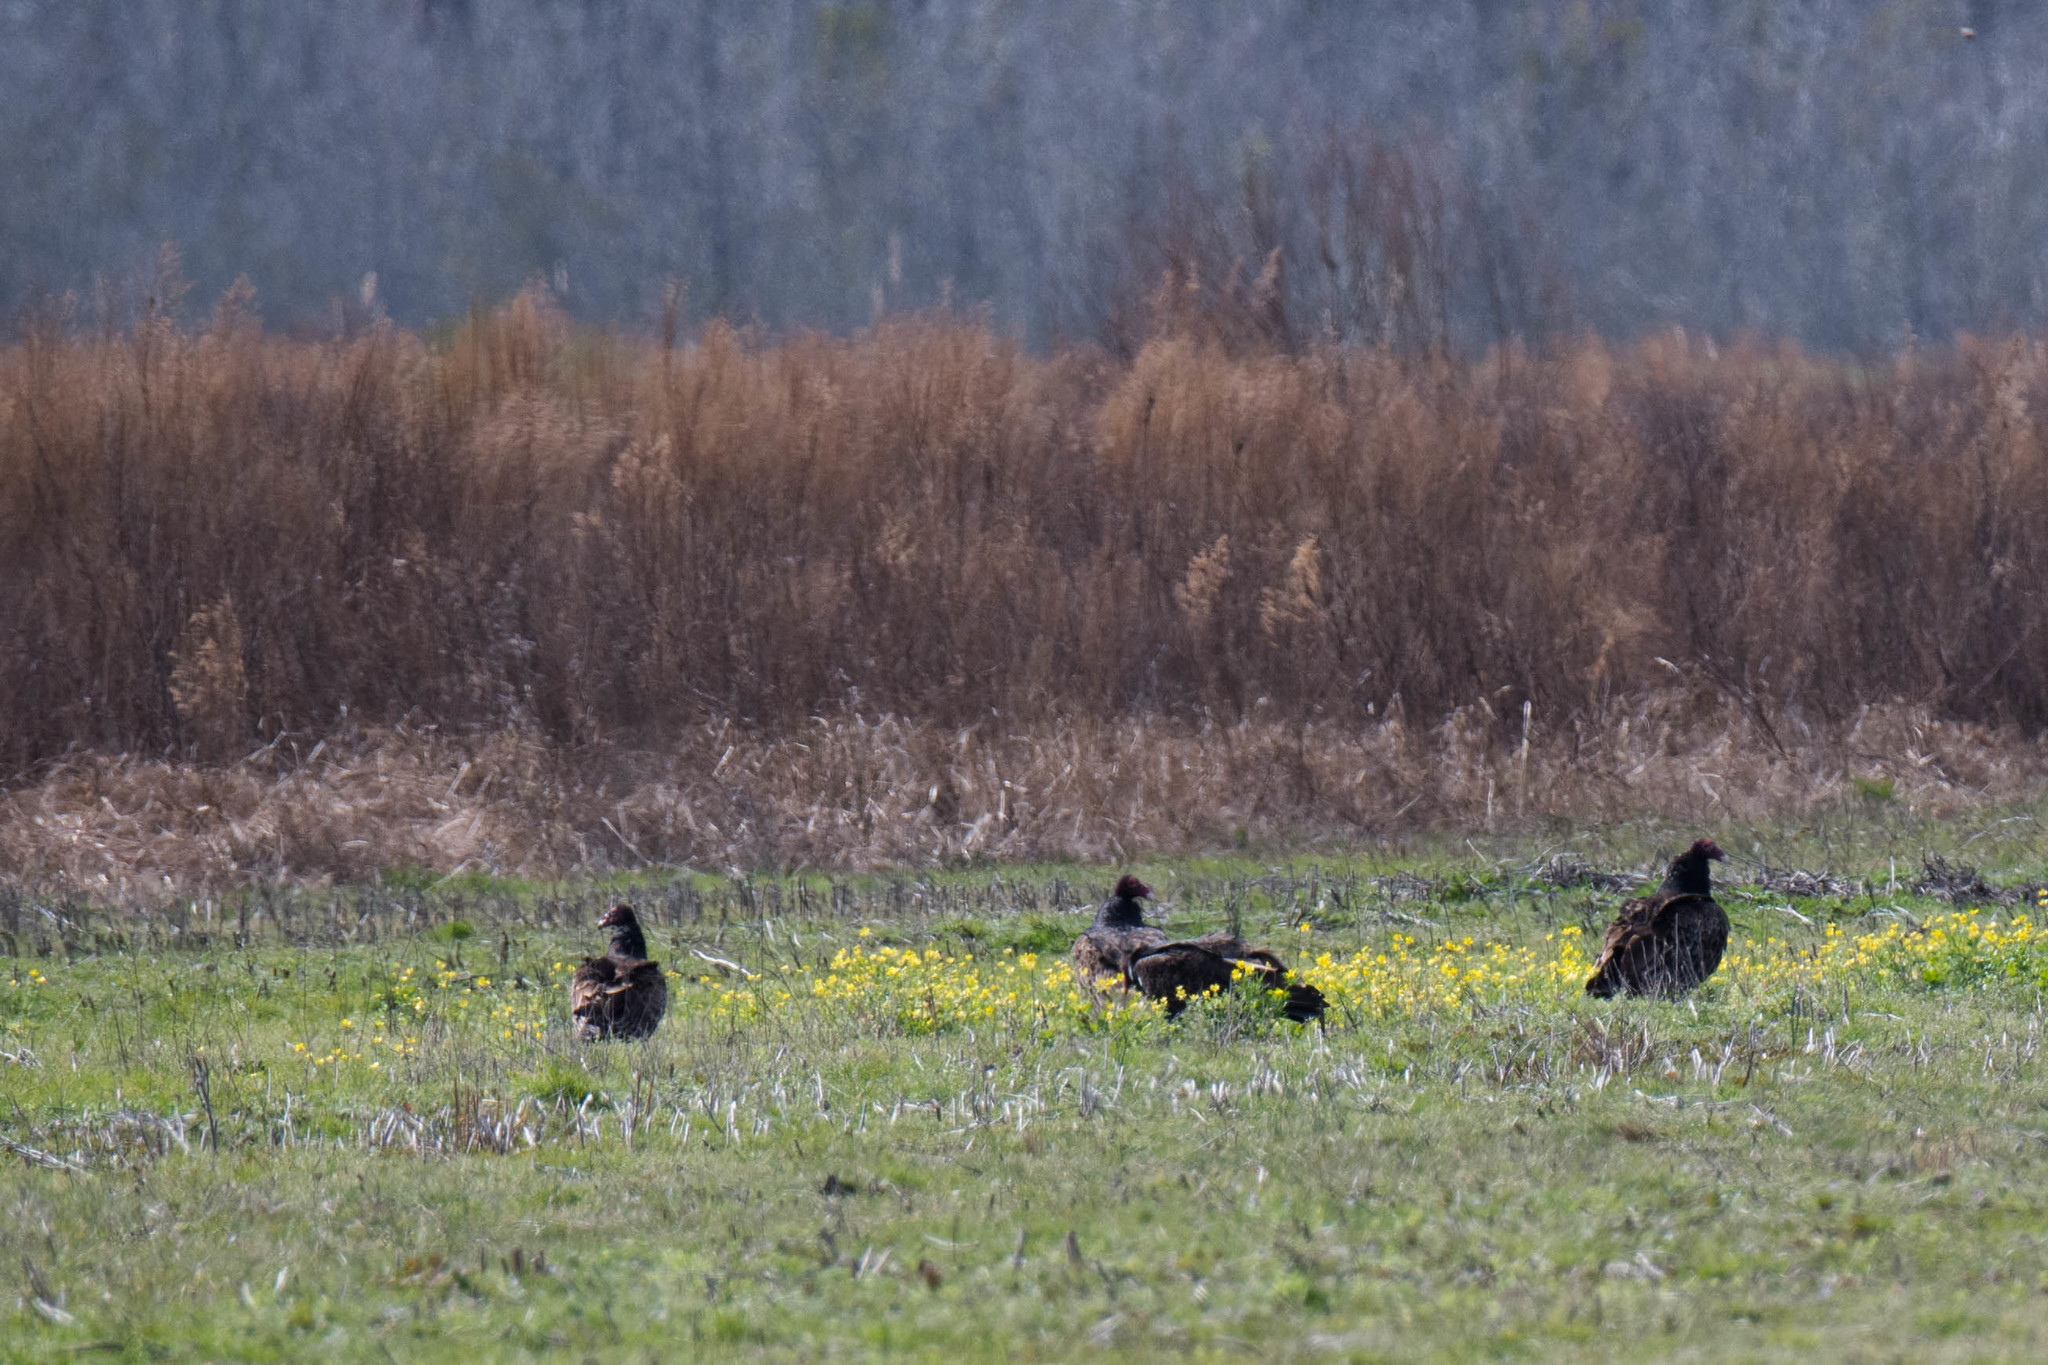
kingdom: Animalia
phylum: Chordata
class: Aves
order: Accipitriformes
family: Cathartidae
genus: Cathartes
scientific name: Cathartes aura
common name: Turkey vulture
